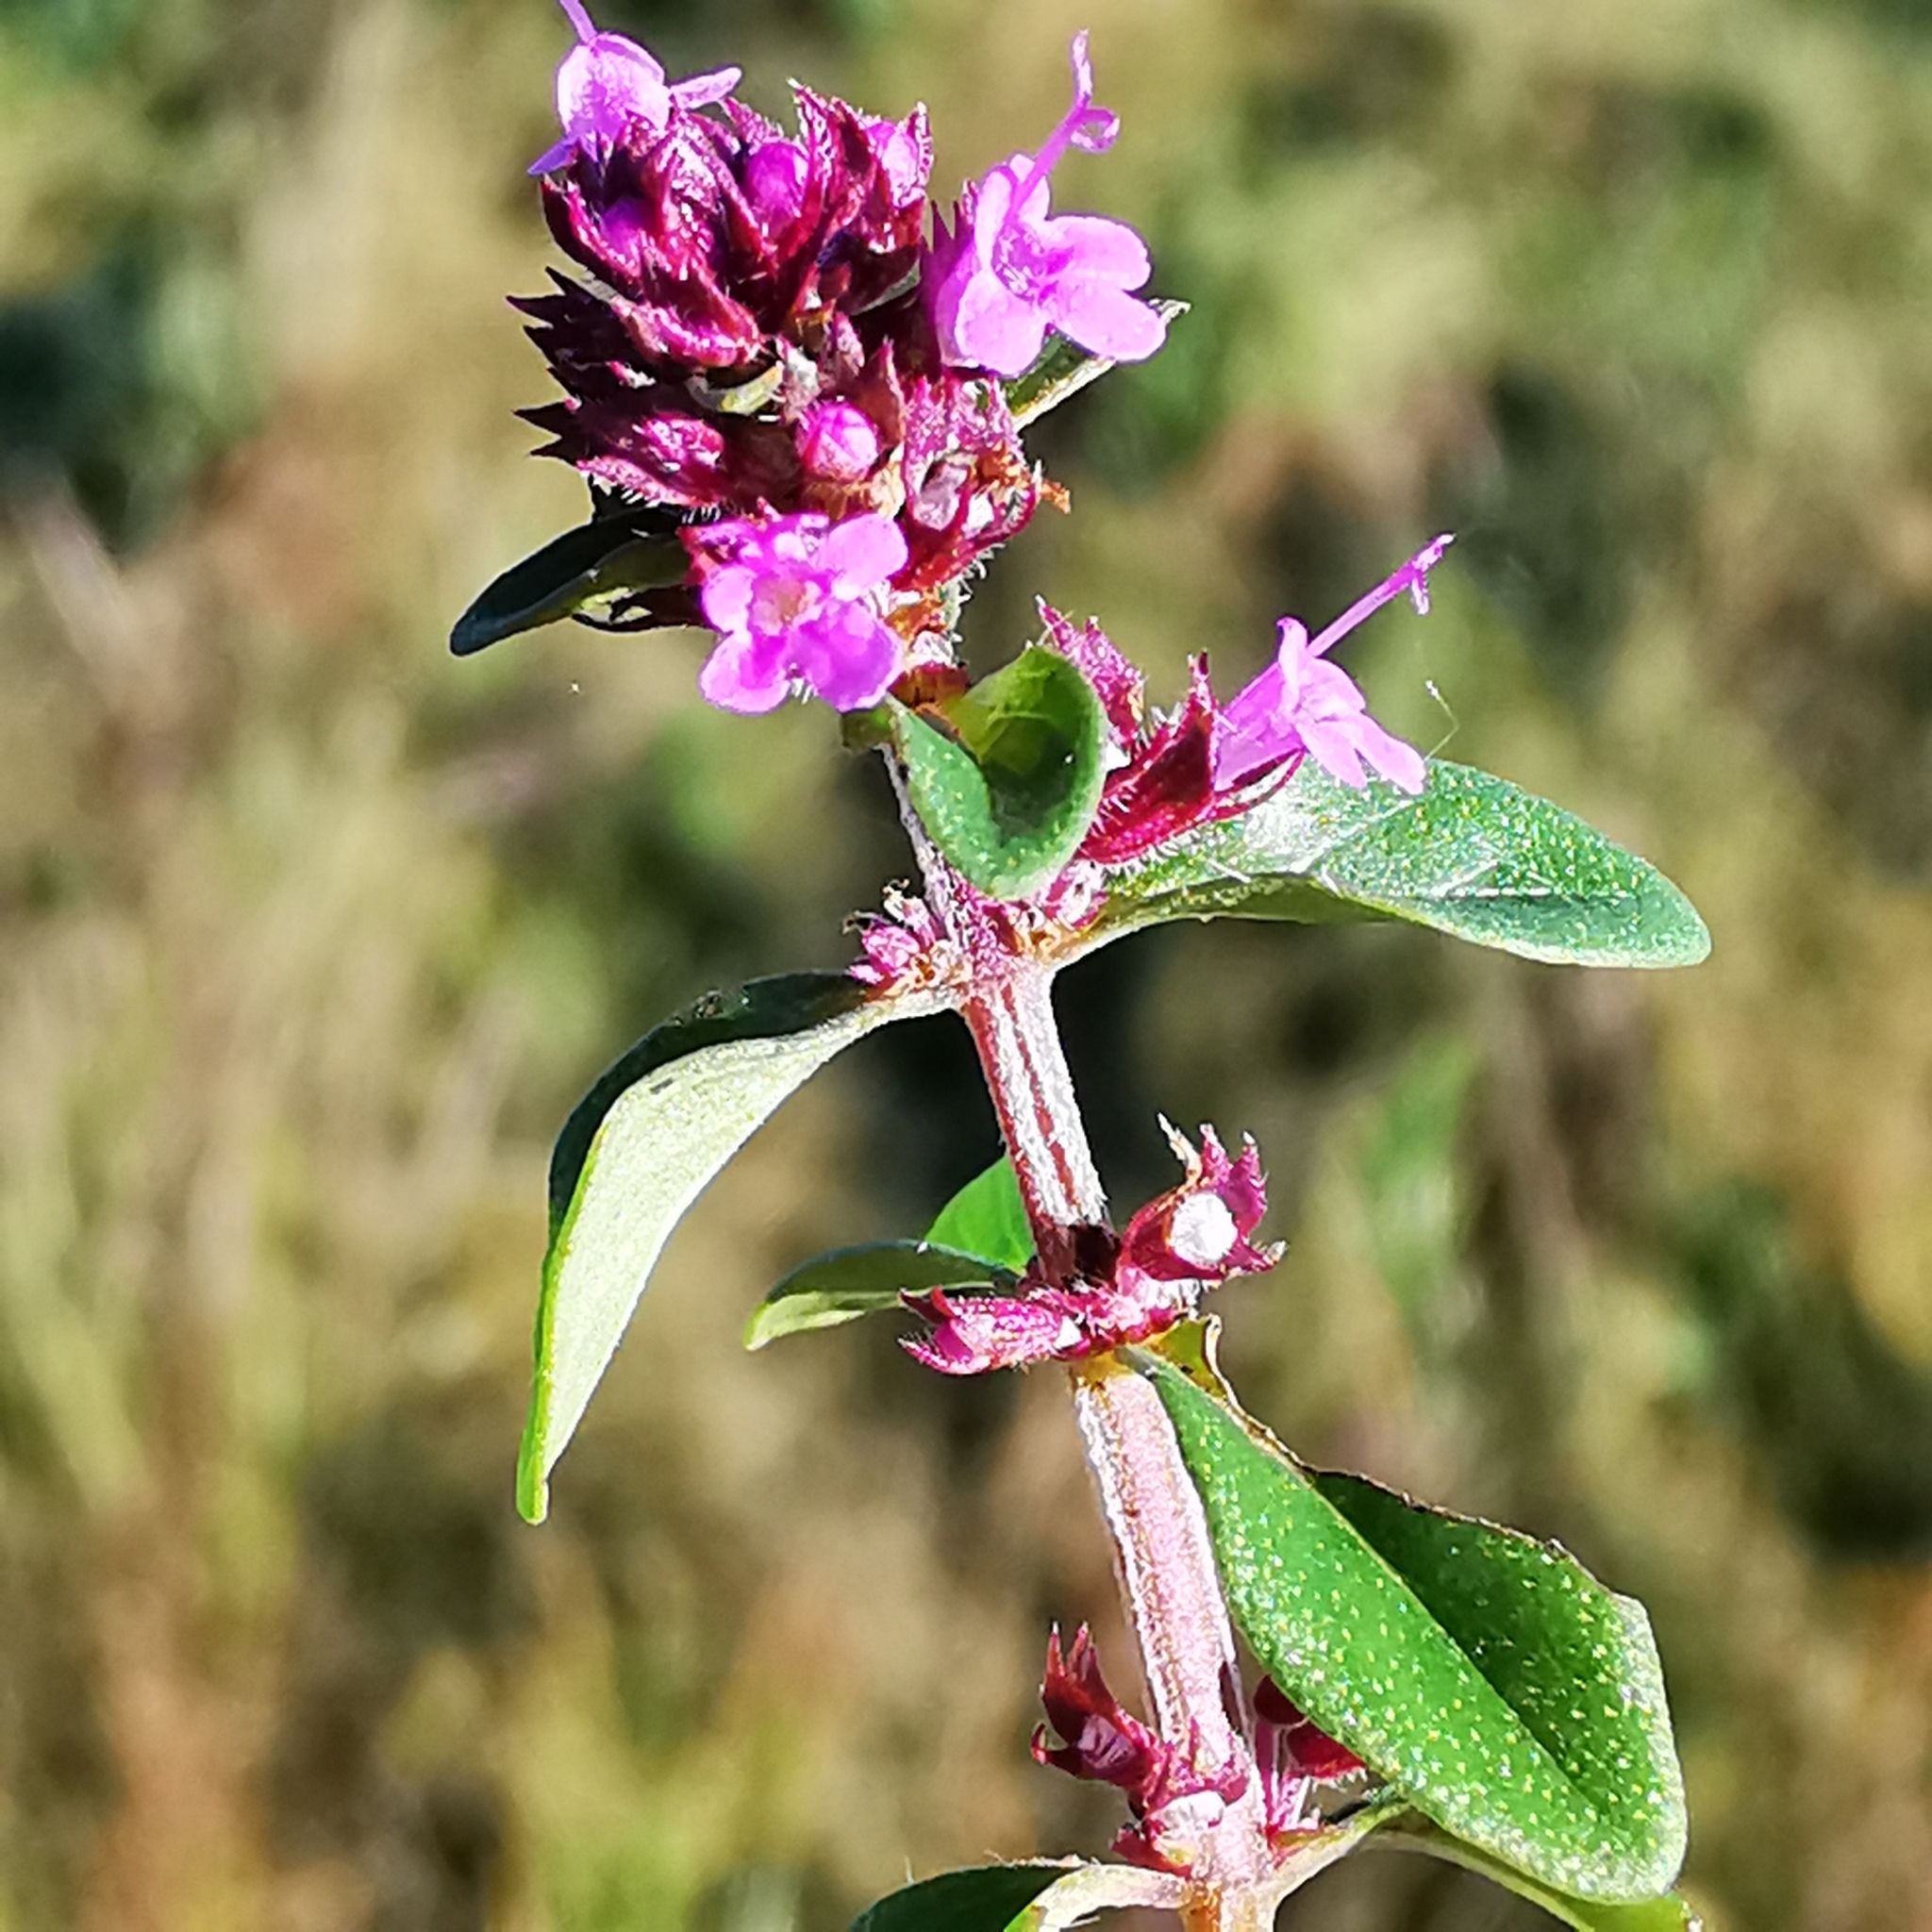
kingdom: Plantae
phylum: Tracheophyta
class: Magnoliopsida
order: Lamiales
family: Lamiaceae
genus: Thymus
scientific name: Thymus pulegioides
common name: Large thyme
